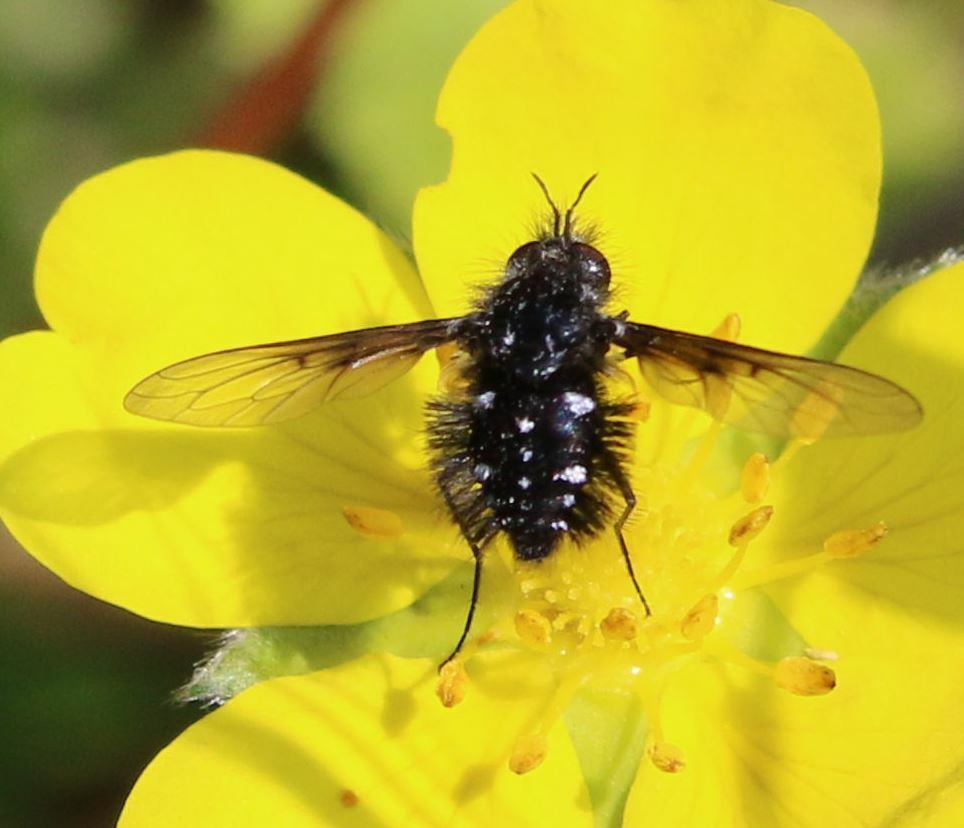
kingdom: Animalia
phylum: Arthropoda
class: Insecta
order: Diptera
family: Bombyliidae
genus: Bombylella
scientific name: Bombylella atra
